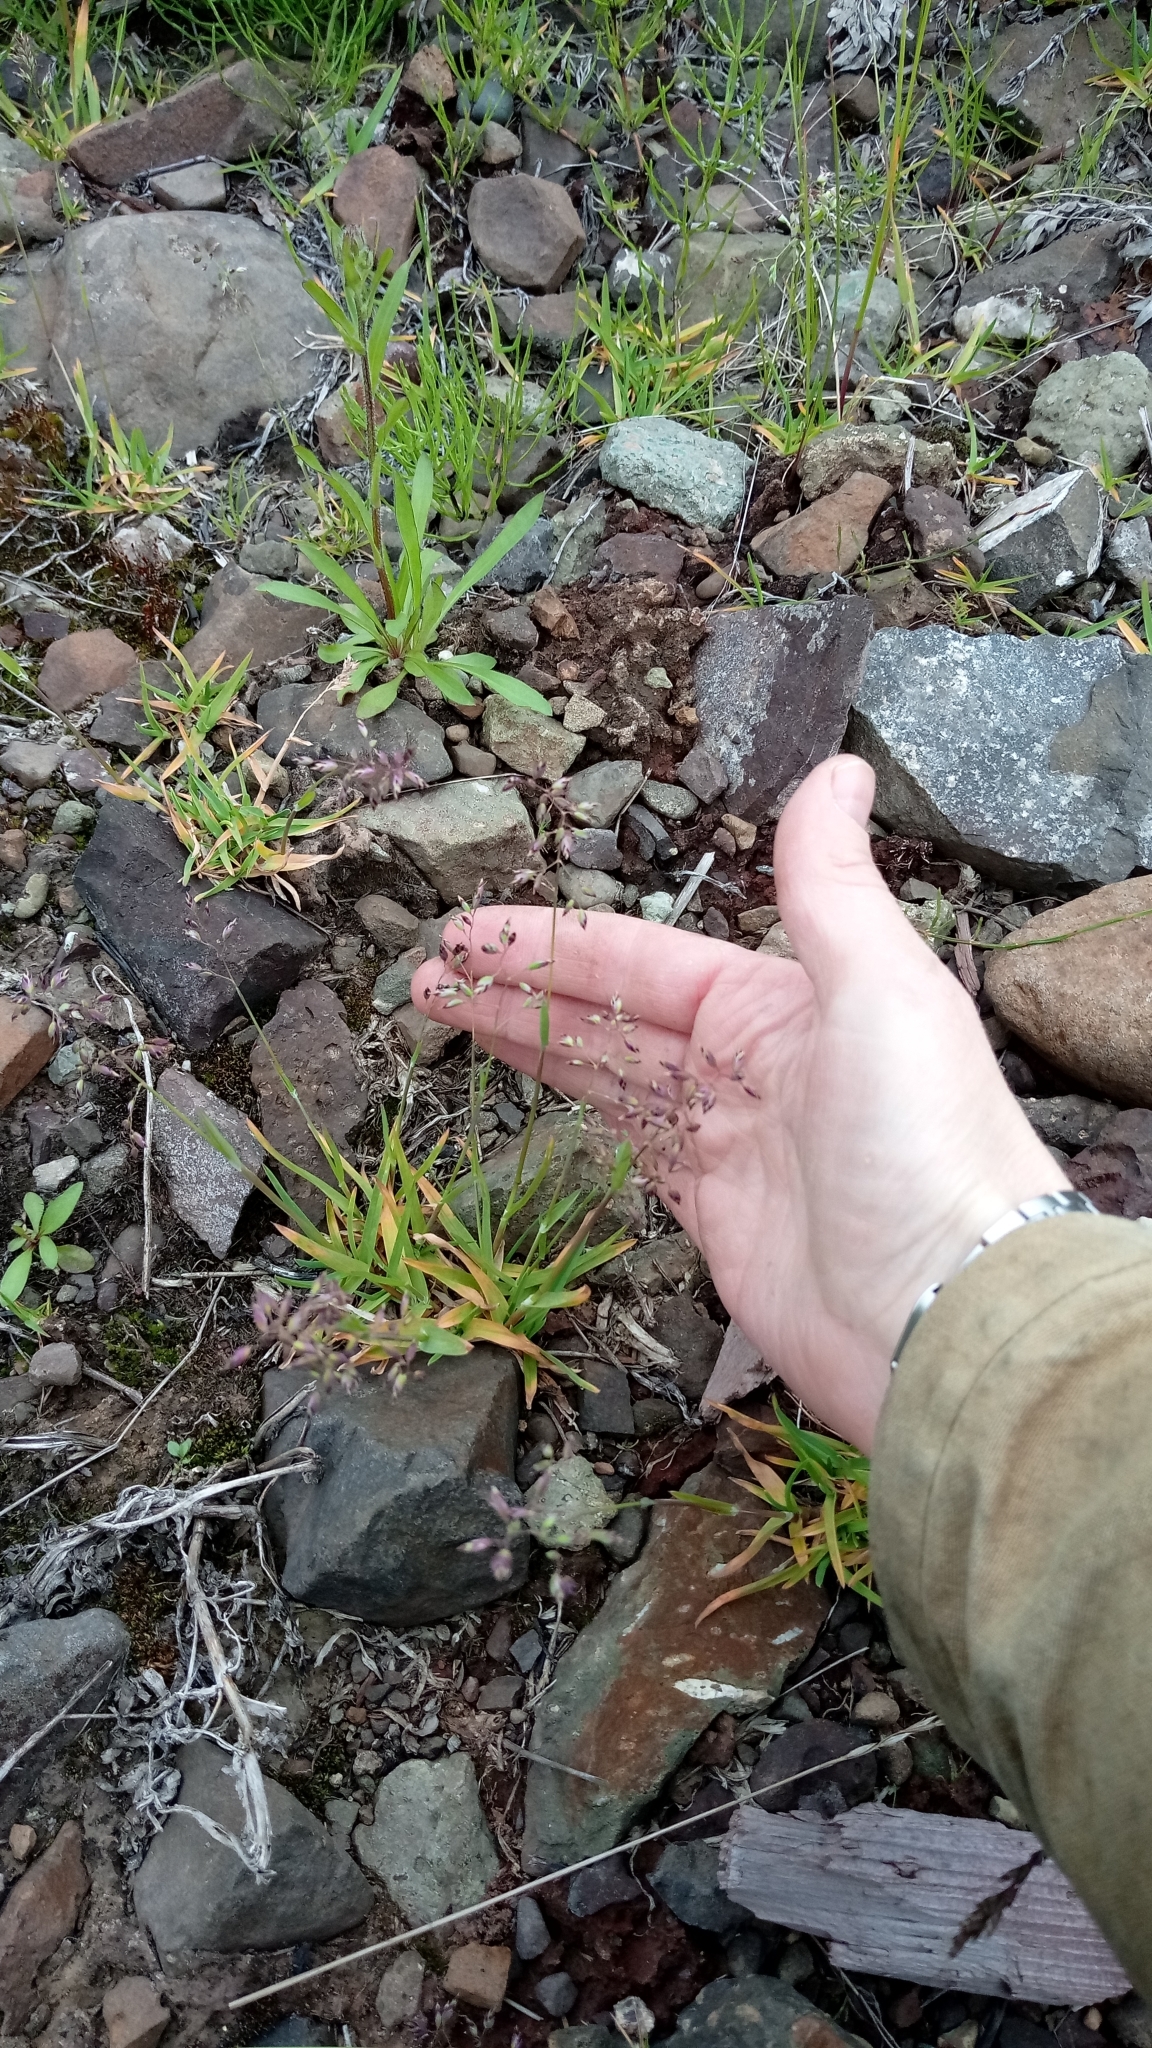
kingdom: Plantae
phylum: Tracheophyta
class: Liliopsida
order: Poales
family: Poaceae
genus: Poa
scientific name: Poa alpina
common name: Alpine bluegrass
